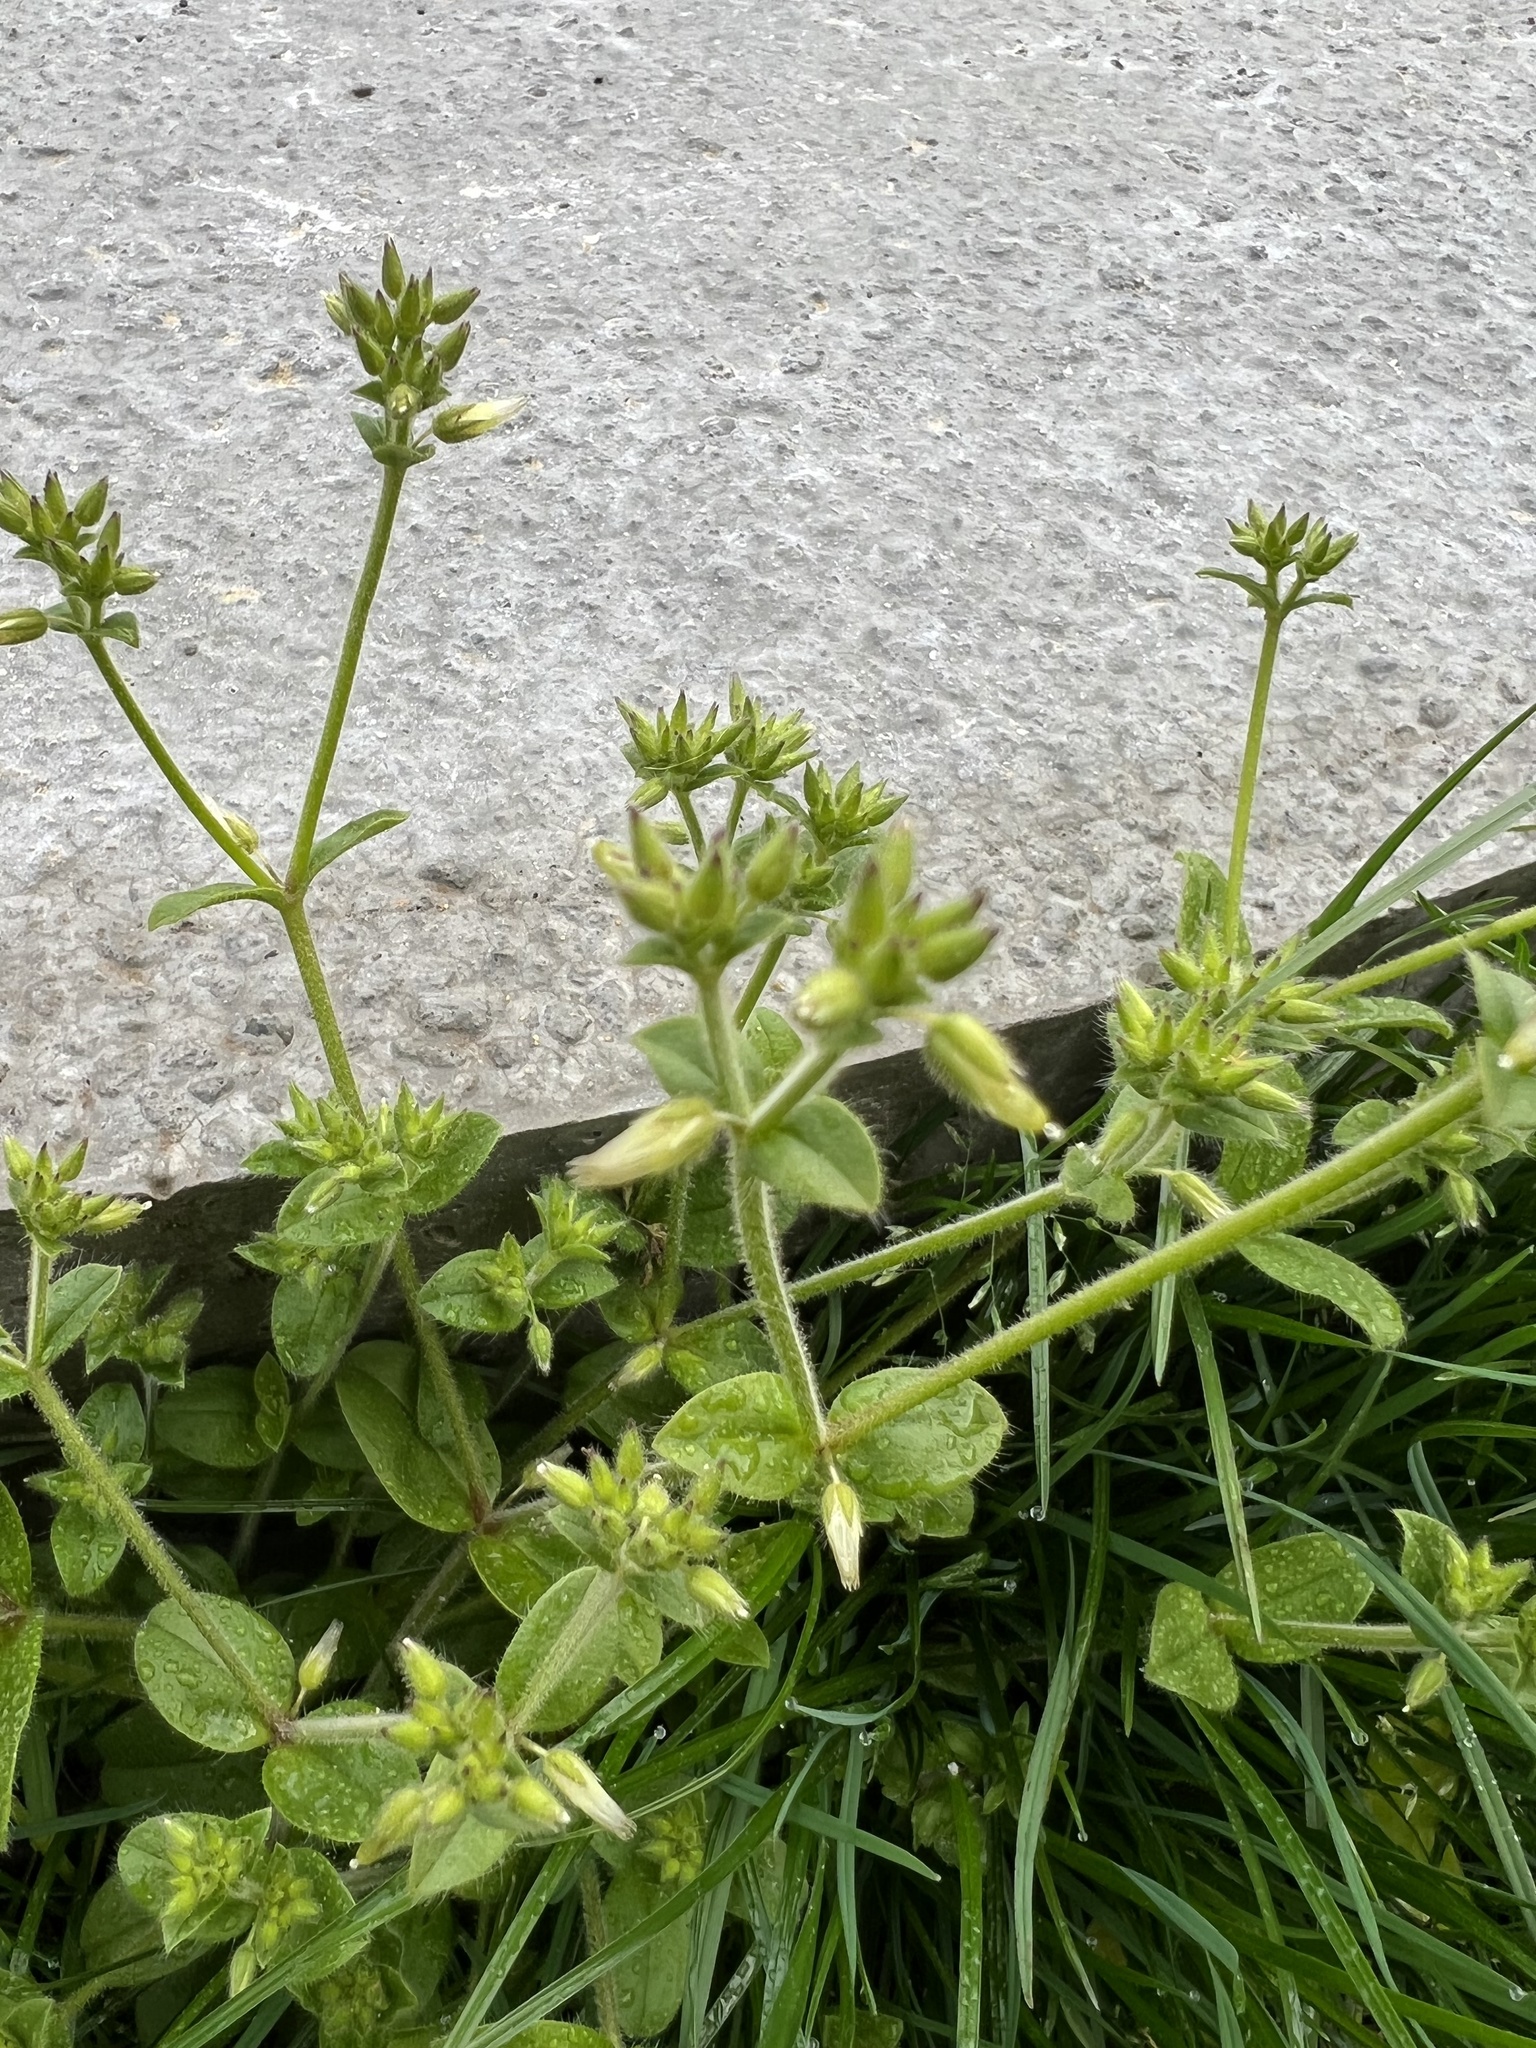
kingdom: Plantae
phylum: Tracheophyta
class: Magnoliopsida
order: Caryophyllales
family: Caryophyllaceae
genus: Cerastium
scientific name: Cerastium glomeratum
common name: Sticky chickweed
